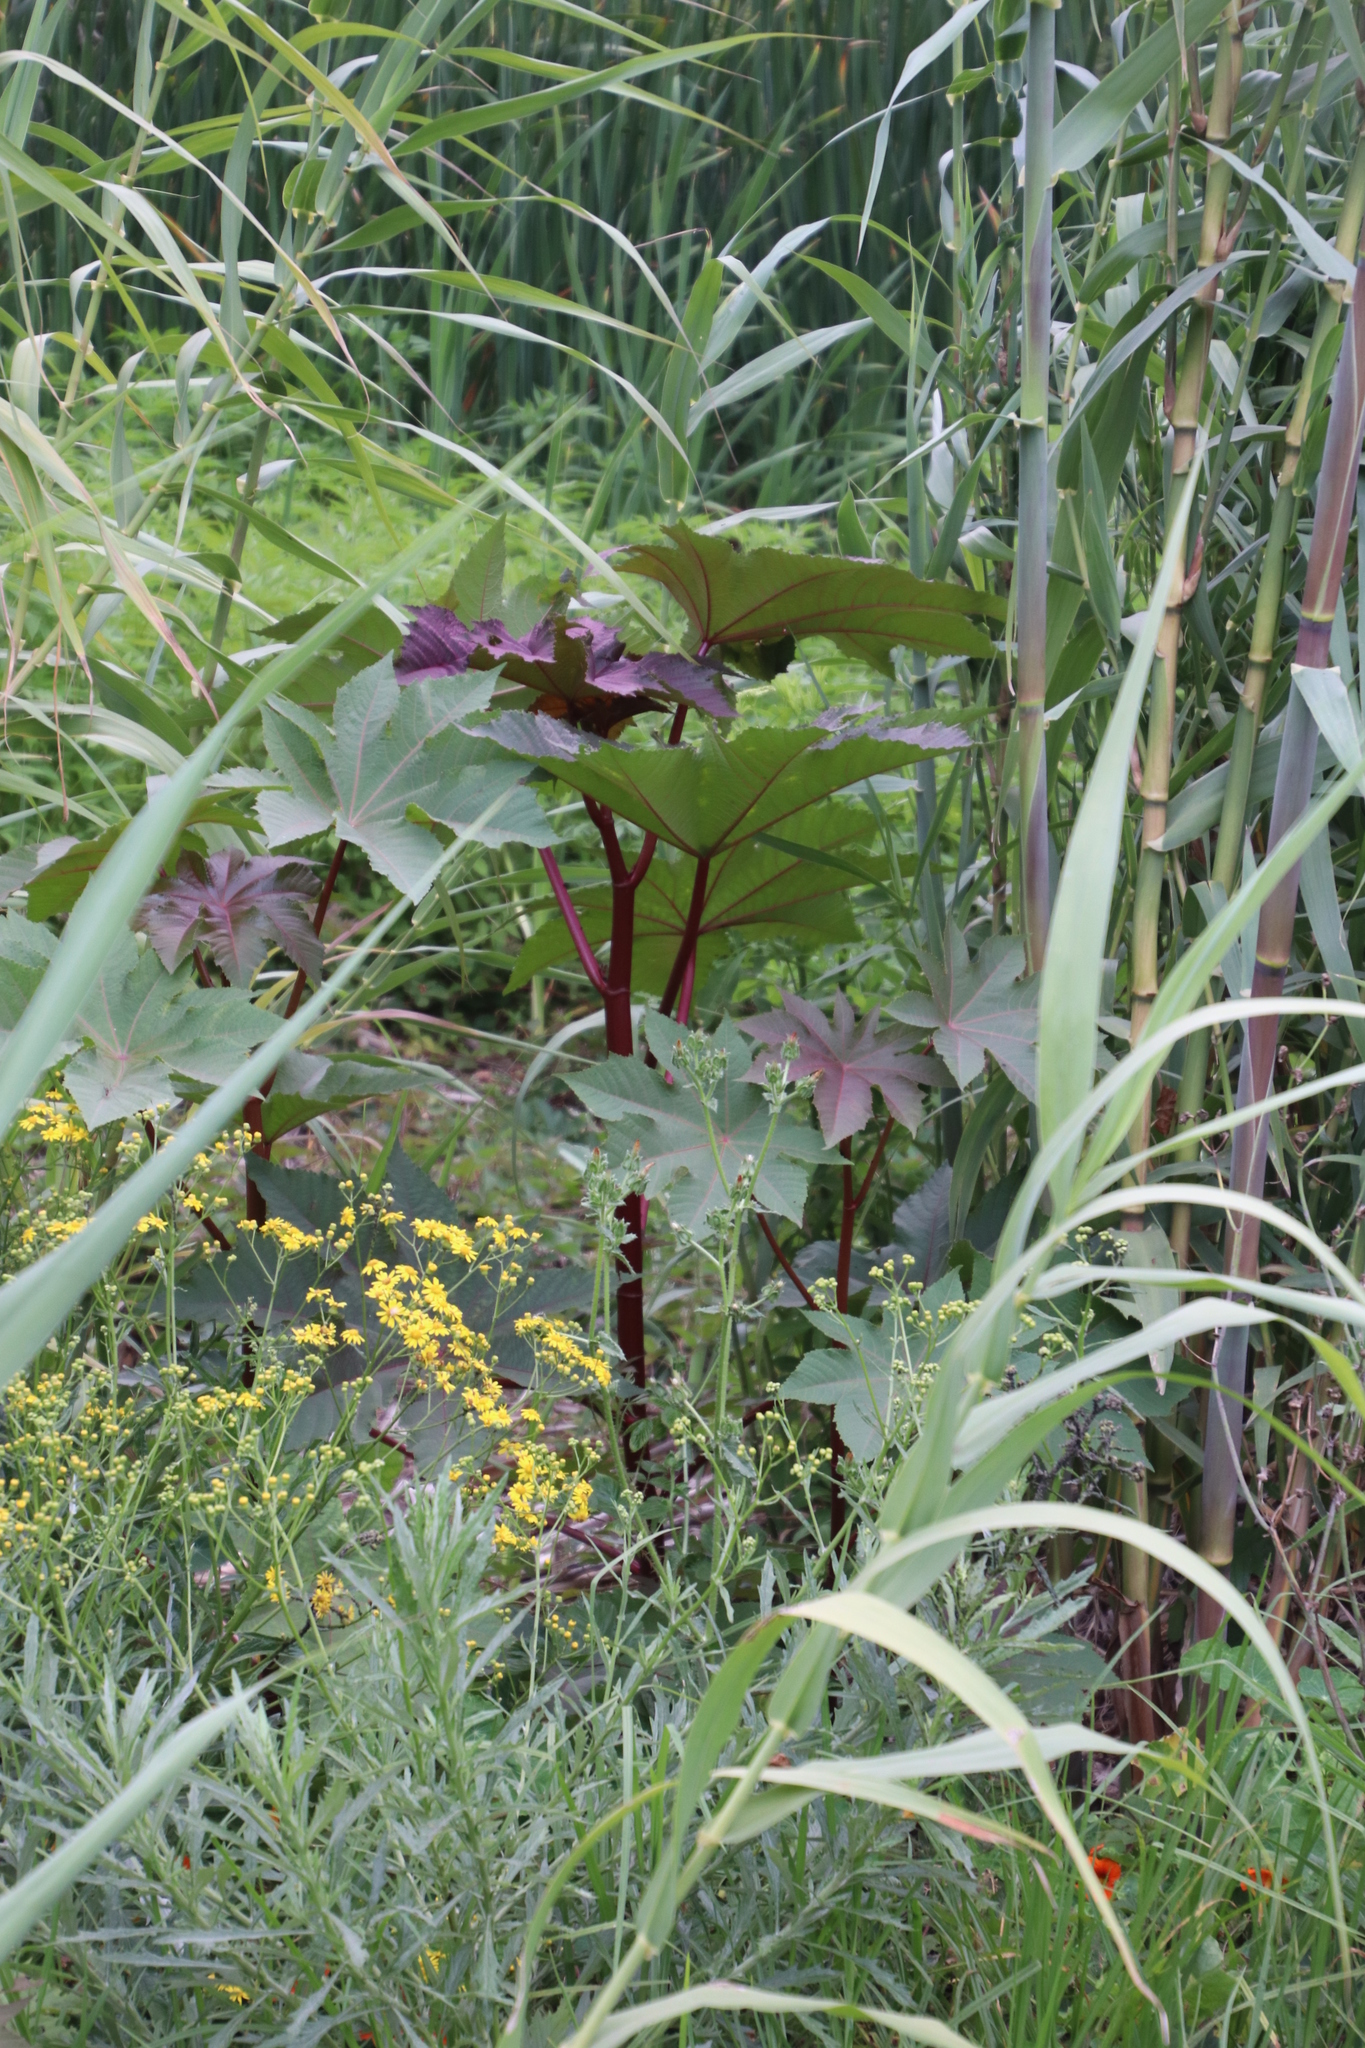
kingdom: Plantae
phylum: Tracheophyta
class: Magnoliopsida
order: Malpighiales
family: Euphorbiaceae
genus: Ricinus
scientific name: Ricinus communis
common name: Castor-oil-plant
